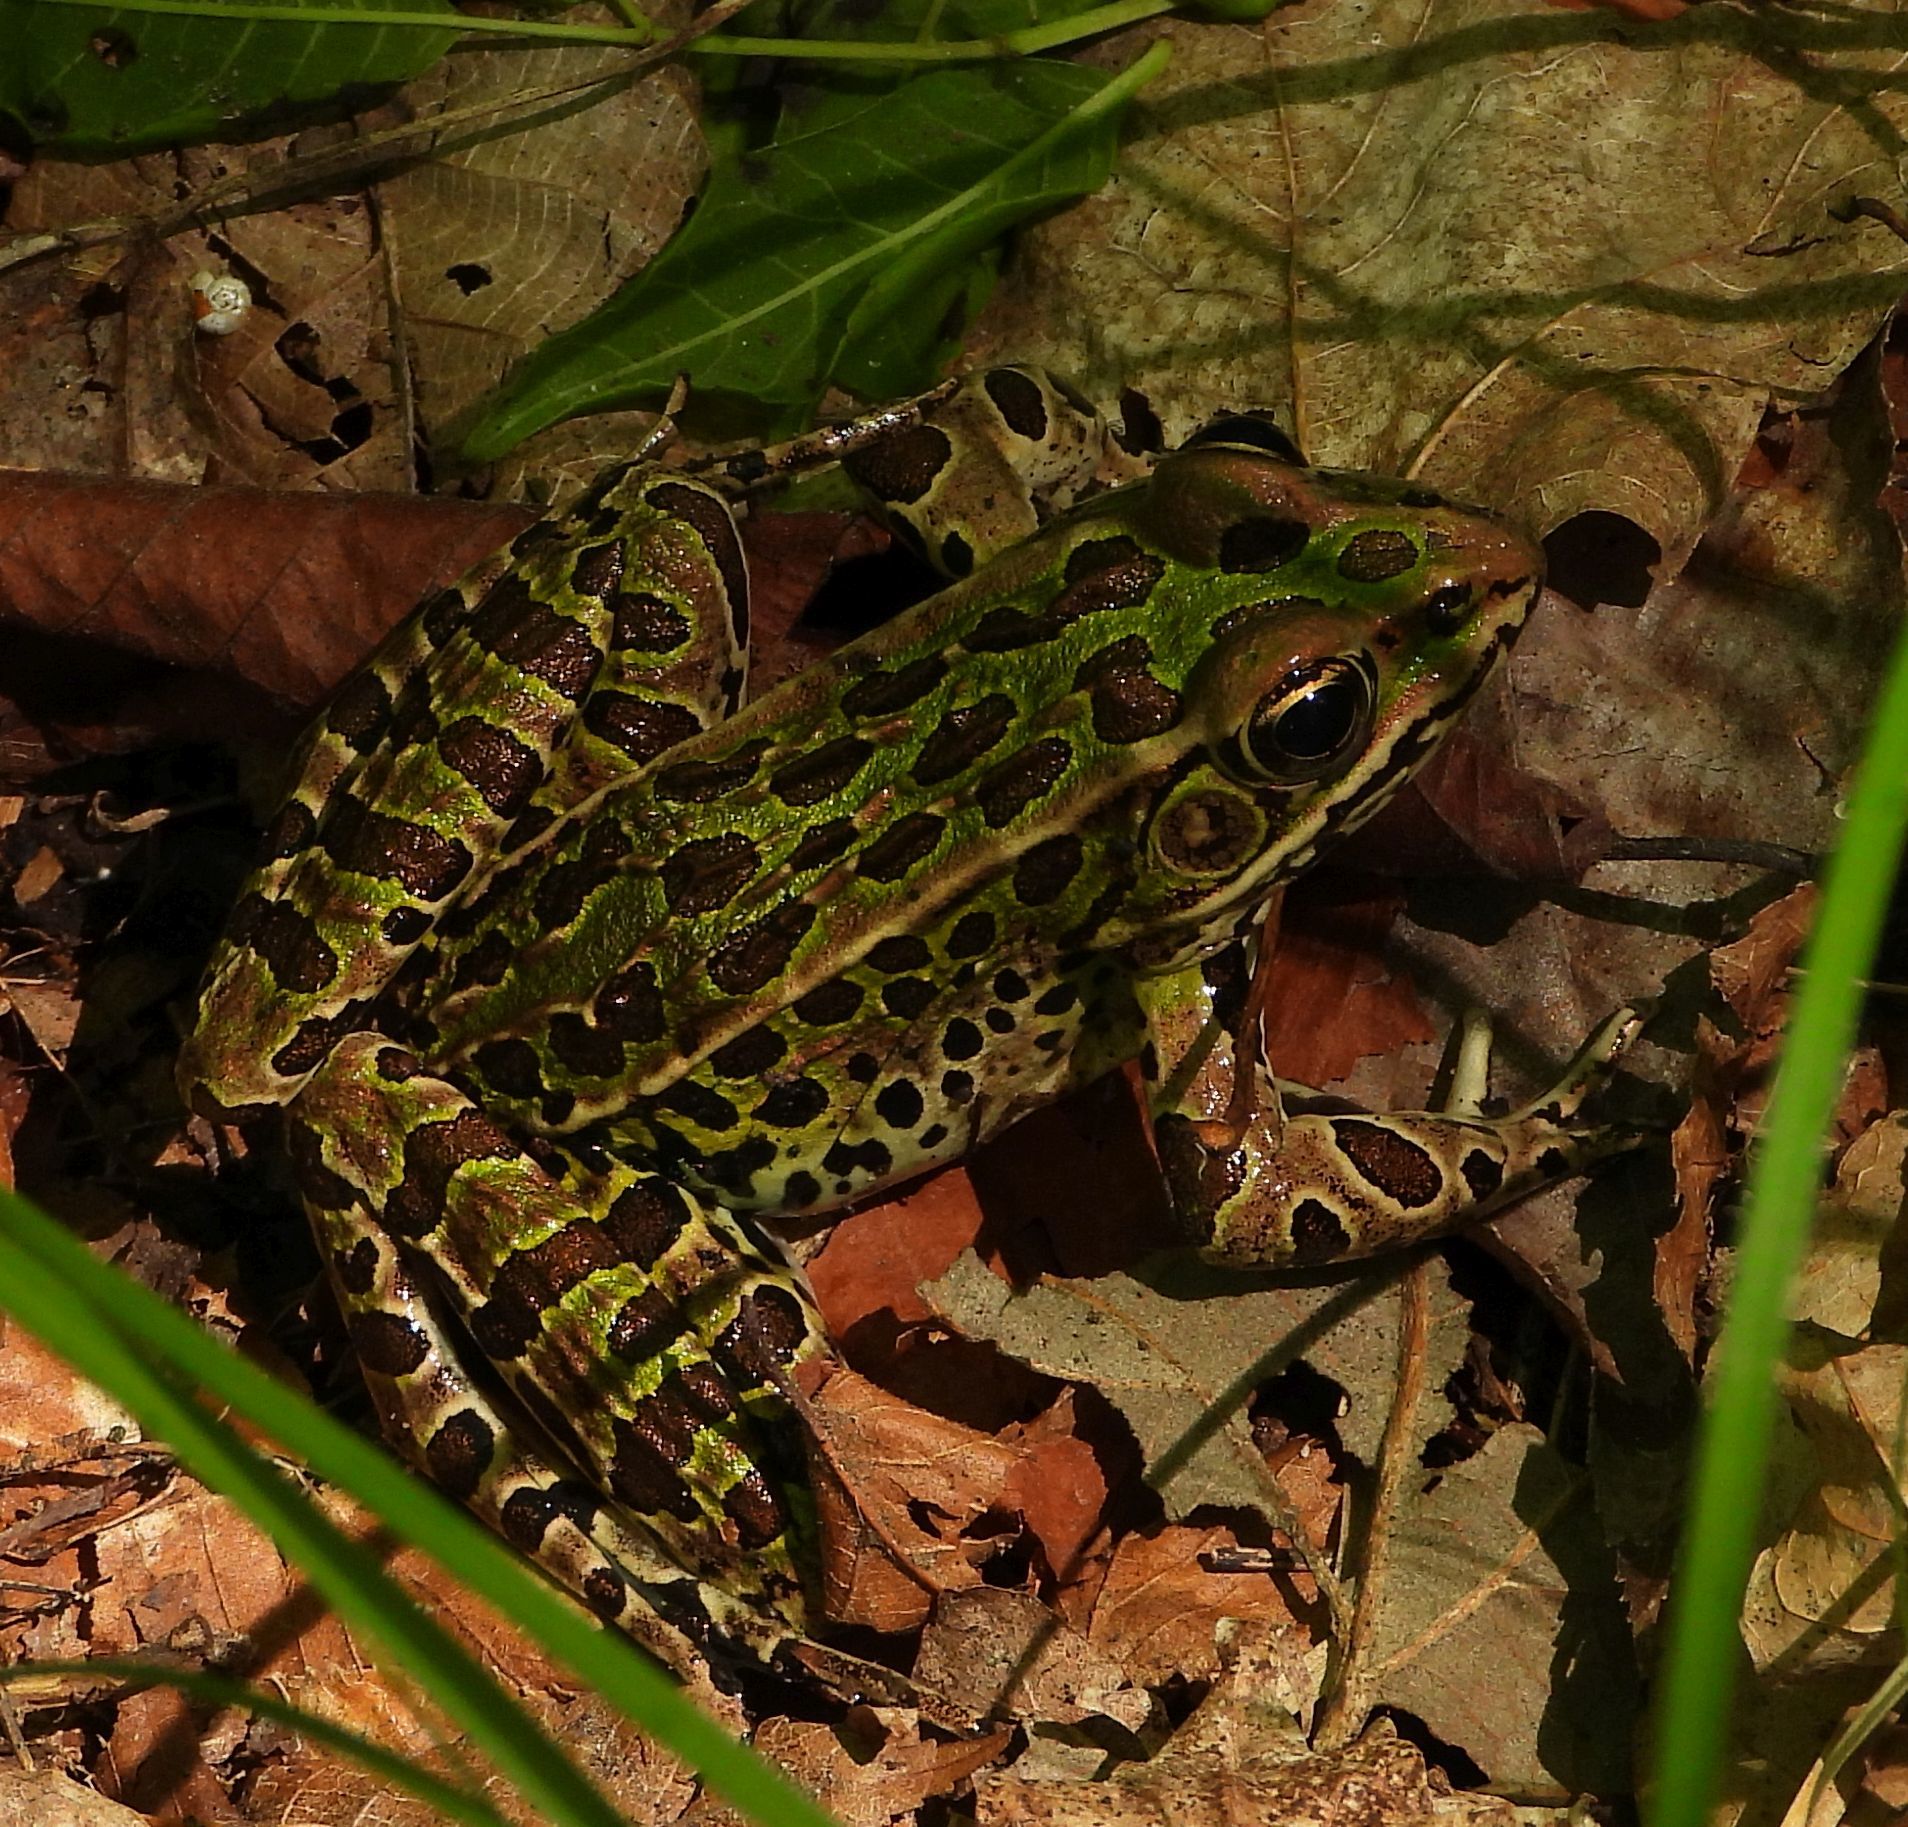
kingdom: Animalia
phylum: Chordata
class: Amphibia
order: Anura
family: Ranidae
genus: Lithobates
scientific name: Lithobates pipiens
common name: Northern leopard frog
